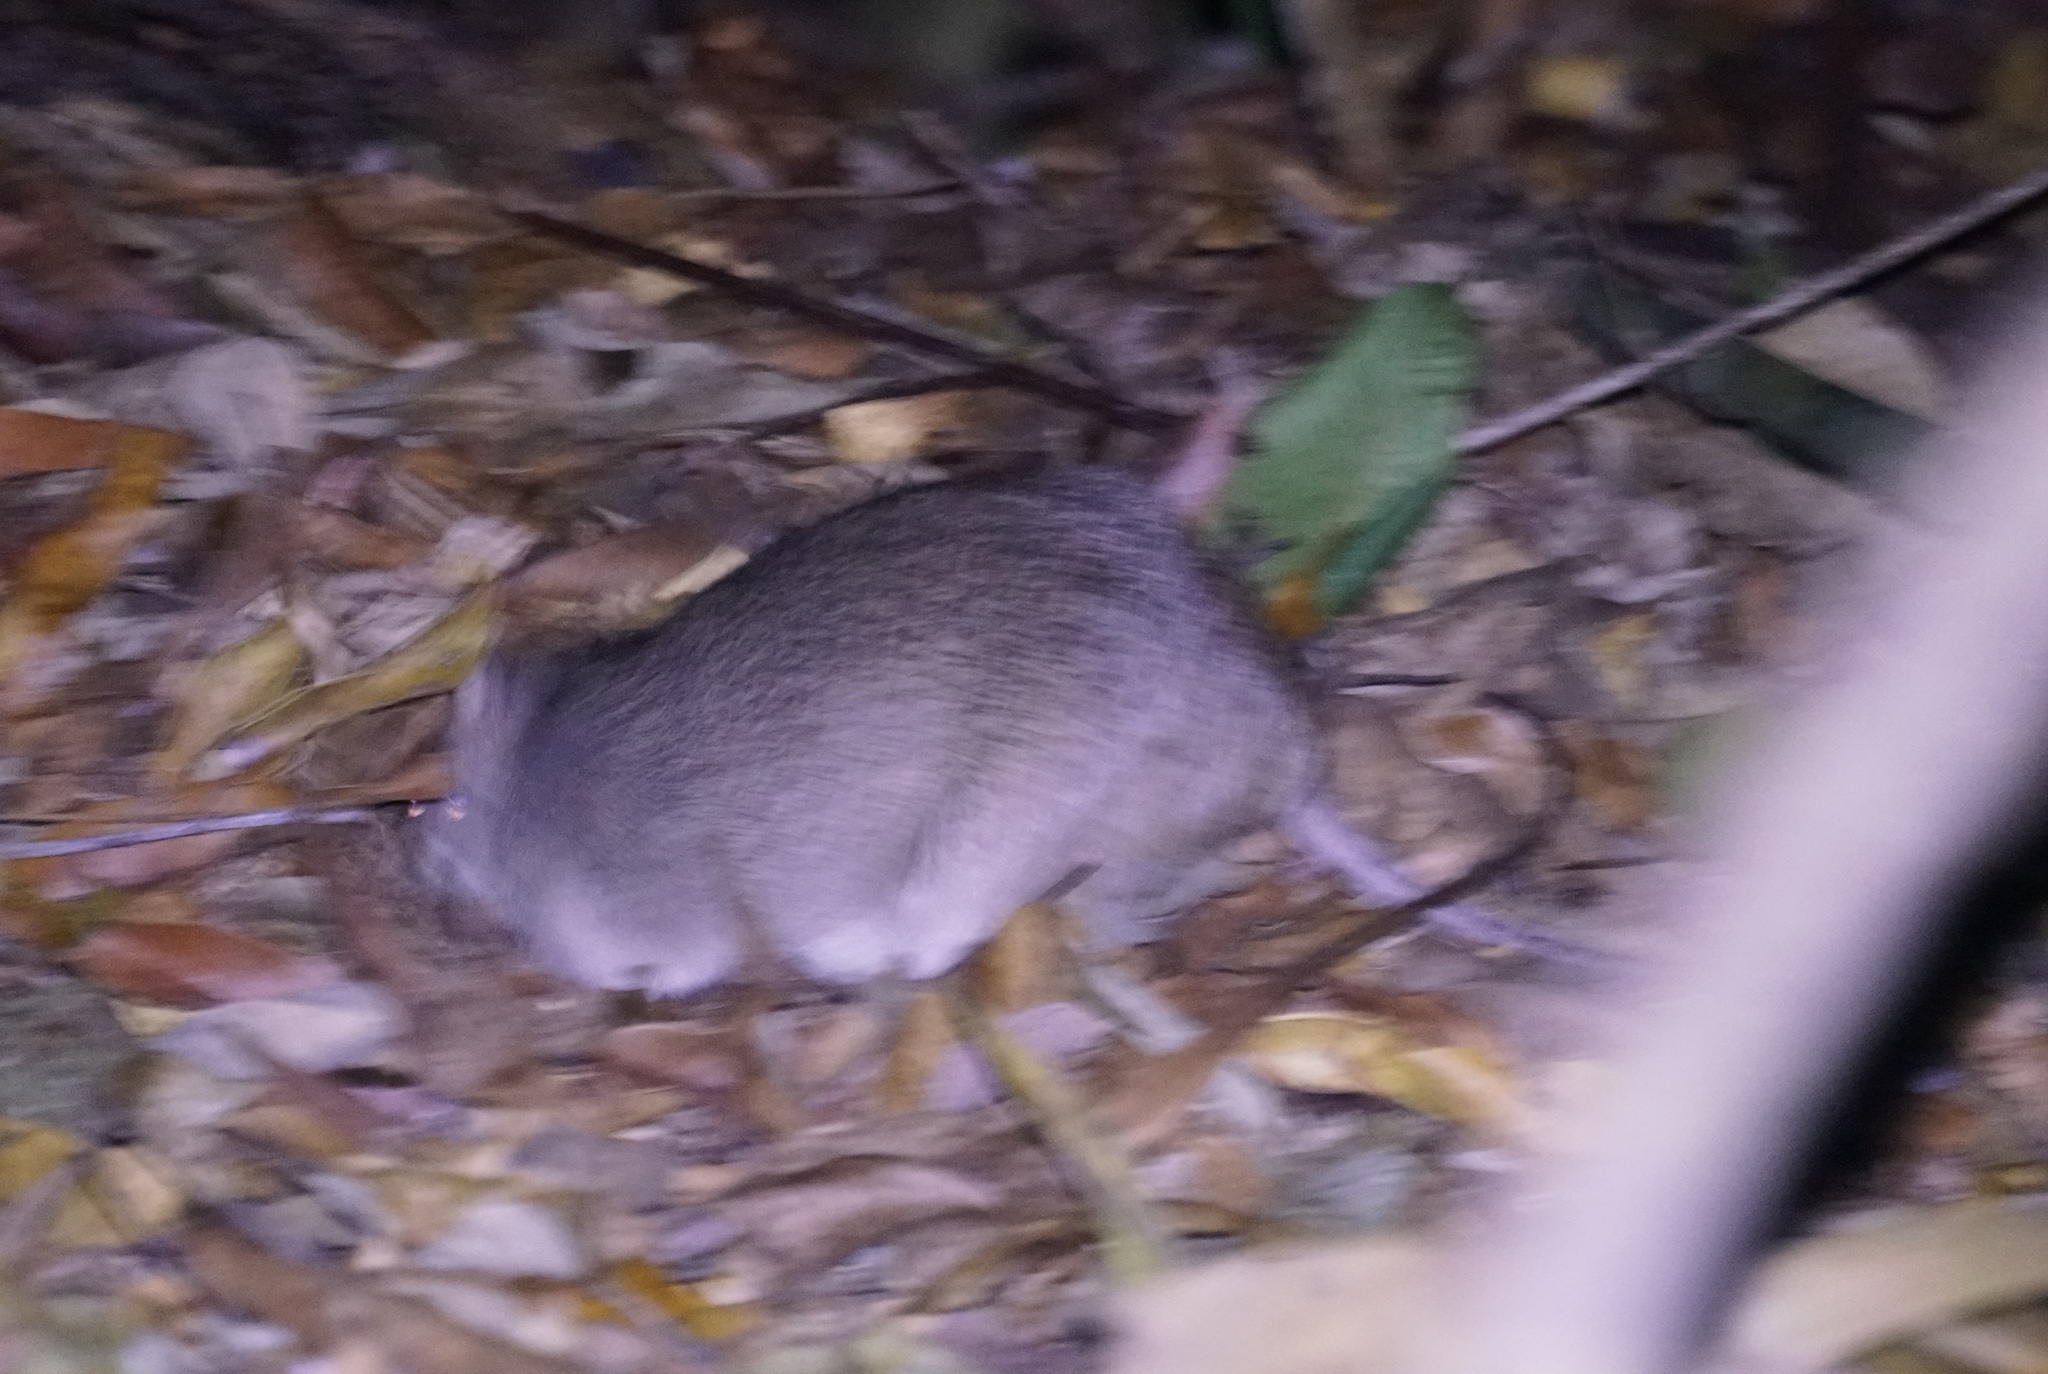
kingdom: Animalia
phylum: Chordata
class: Mammalia
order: Peramelemorphia
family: Peramelidae
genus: Perameles
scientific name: Perameles pallescens
